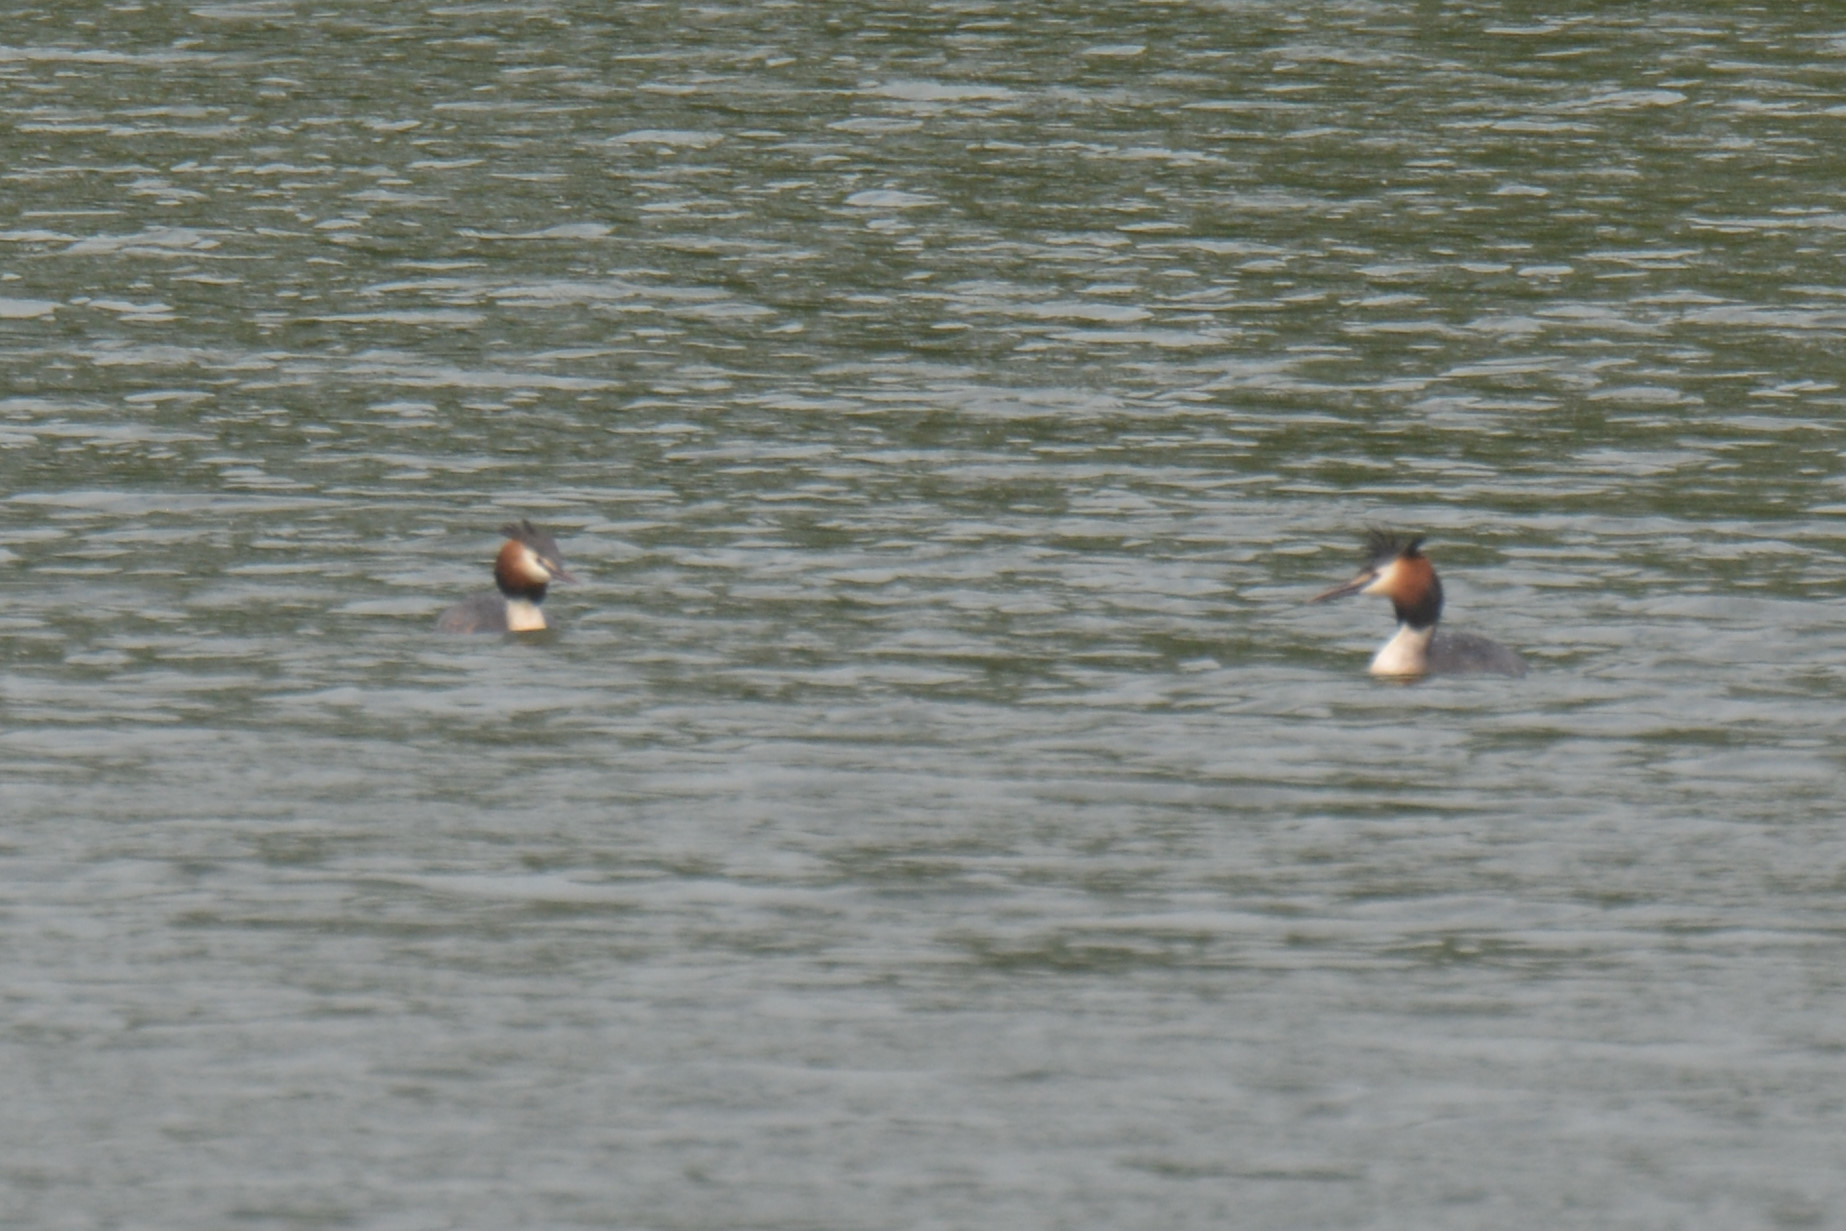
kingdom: Animalia
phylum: Chordata
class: Aves
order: Podicipediformes
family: Podicipedidae
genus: Podiceps
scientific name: Podiceps cristatus
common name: Great crested grebe
